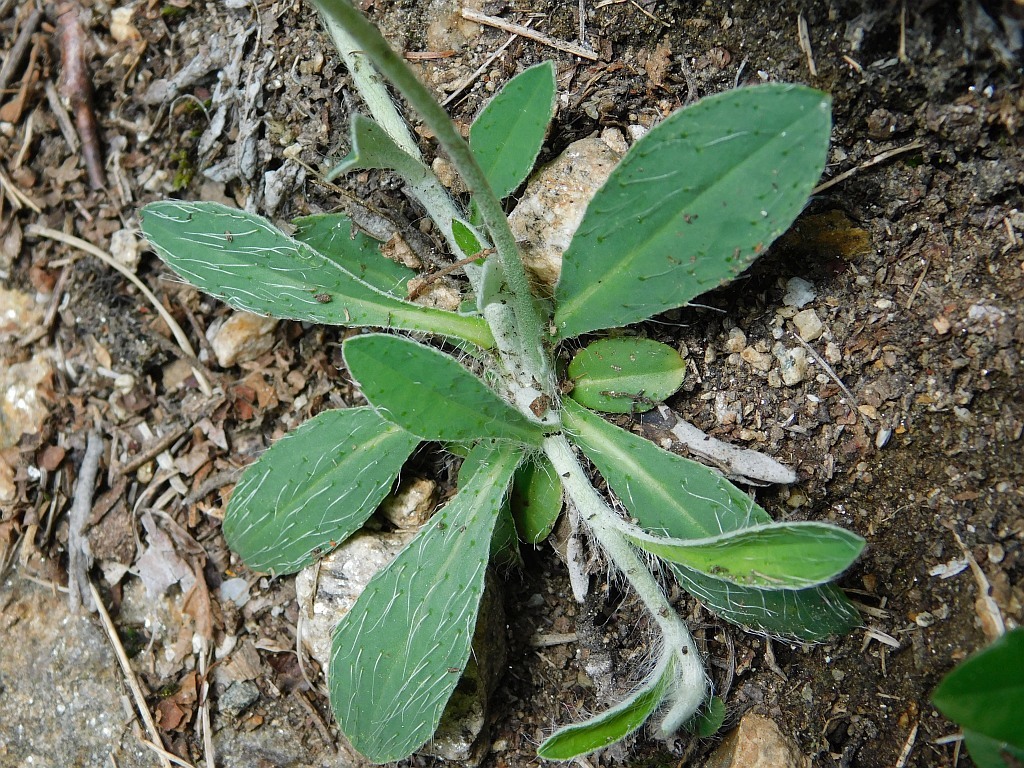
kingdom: Plantae
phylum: Tracheophyta
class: Magnoliopsida
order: Asterales
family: Asteraceae
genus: Pilosella
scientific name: Pilosella officinarum
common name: Mouse-ear hawkweed
